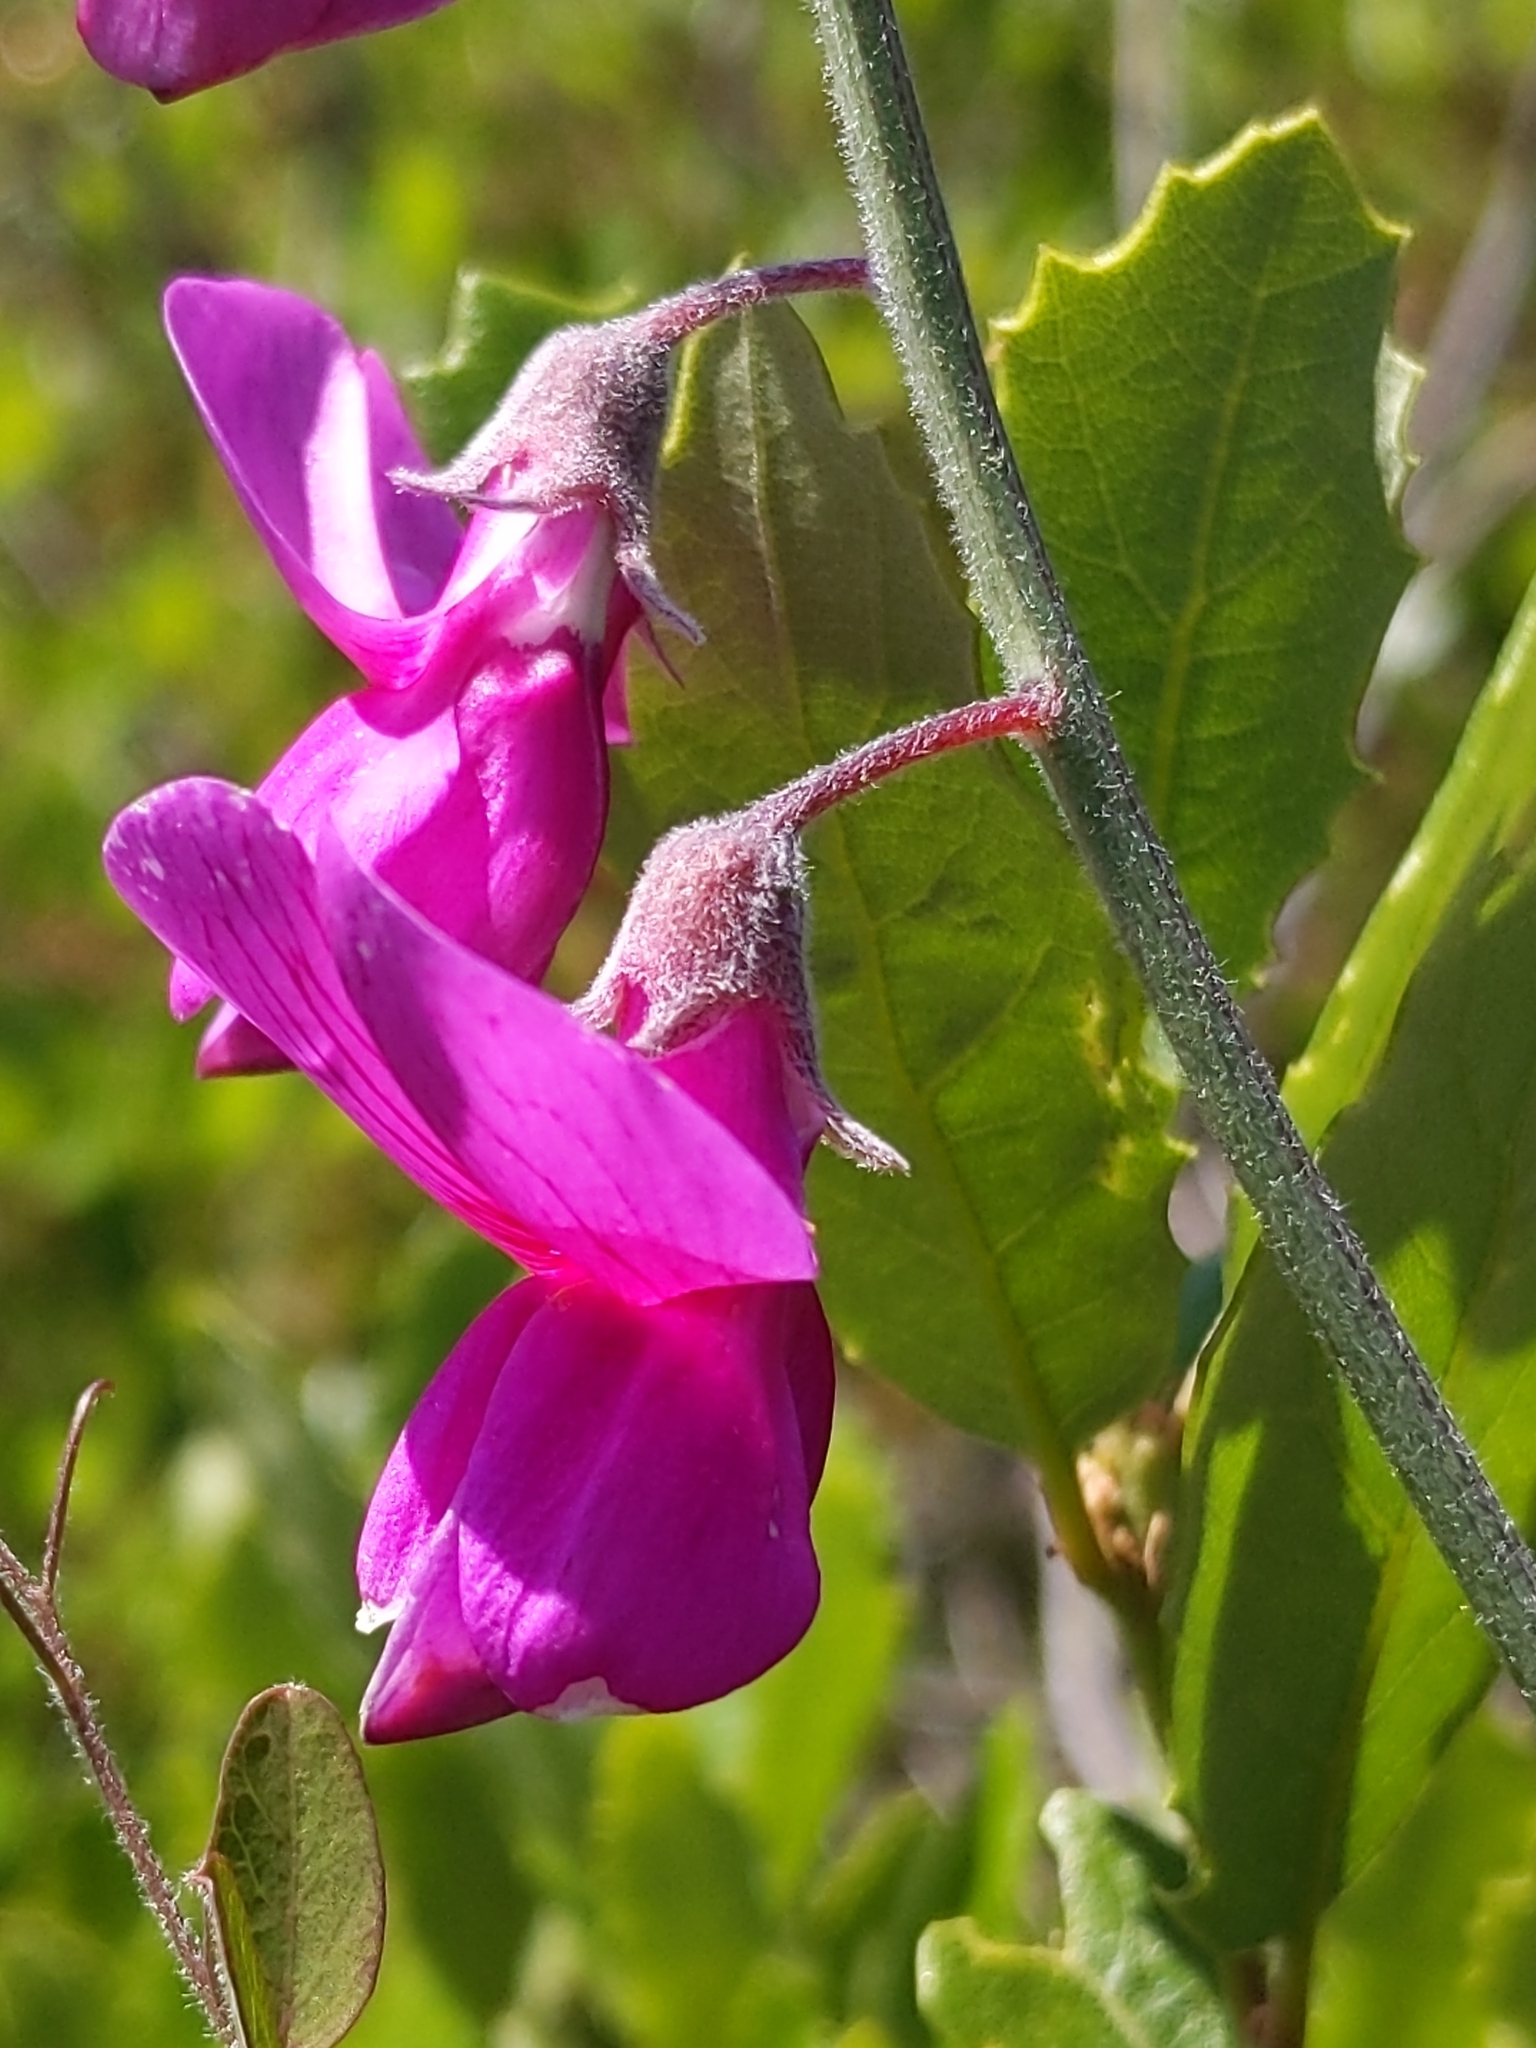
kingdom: Plantae
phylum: Tracheophyta
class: Magnoliopsida
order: Fabales
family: Fabaceae
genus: Lathyrus
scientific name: Lathyrus vestitus
